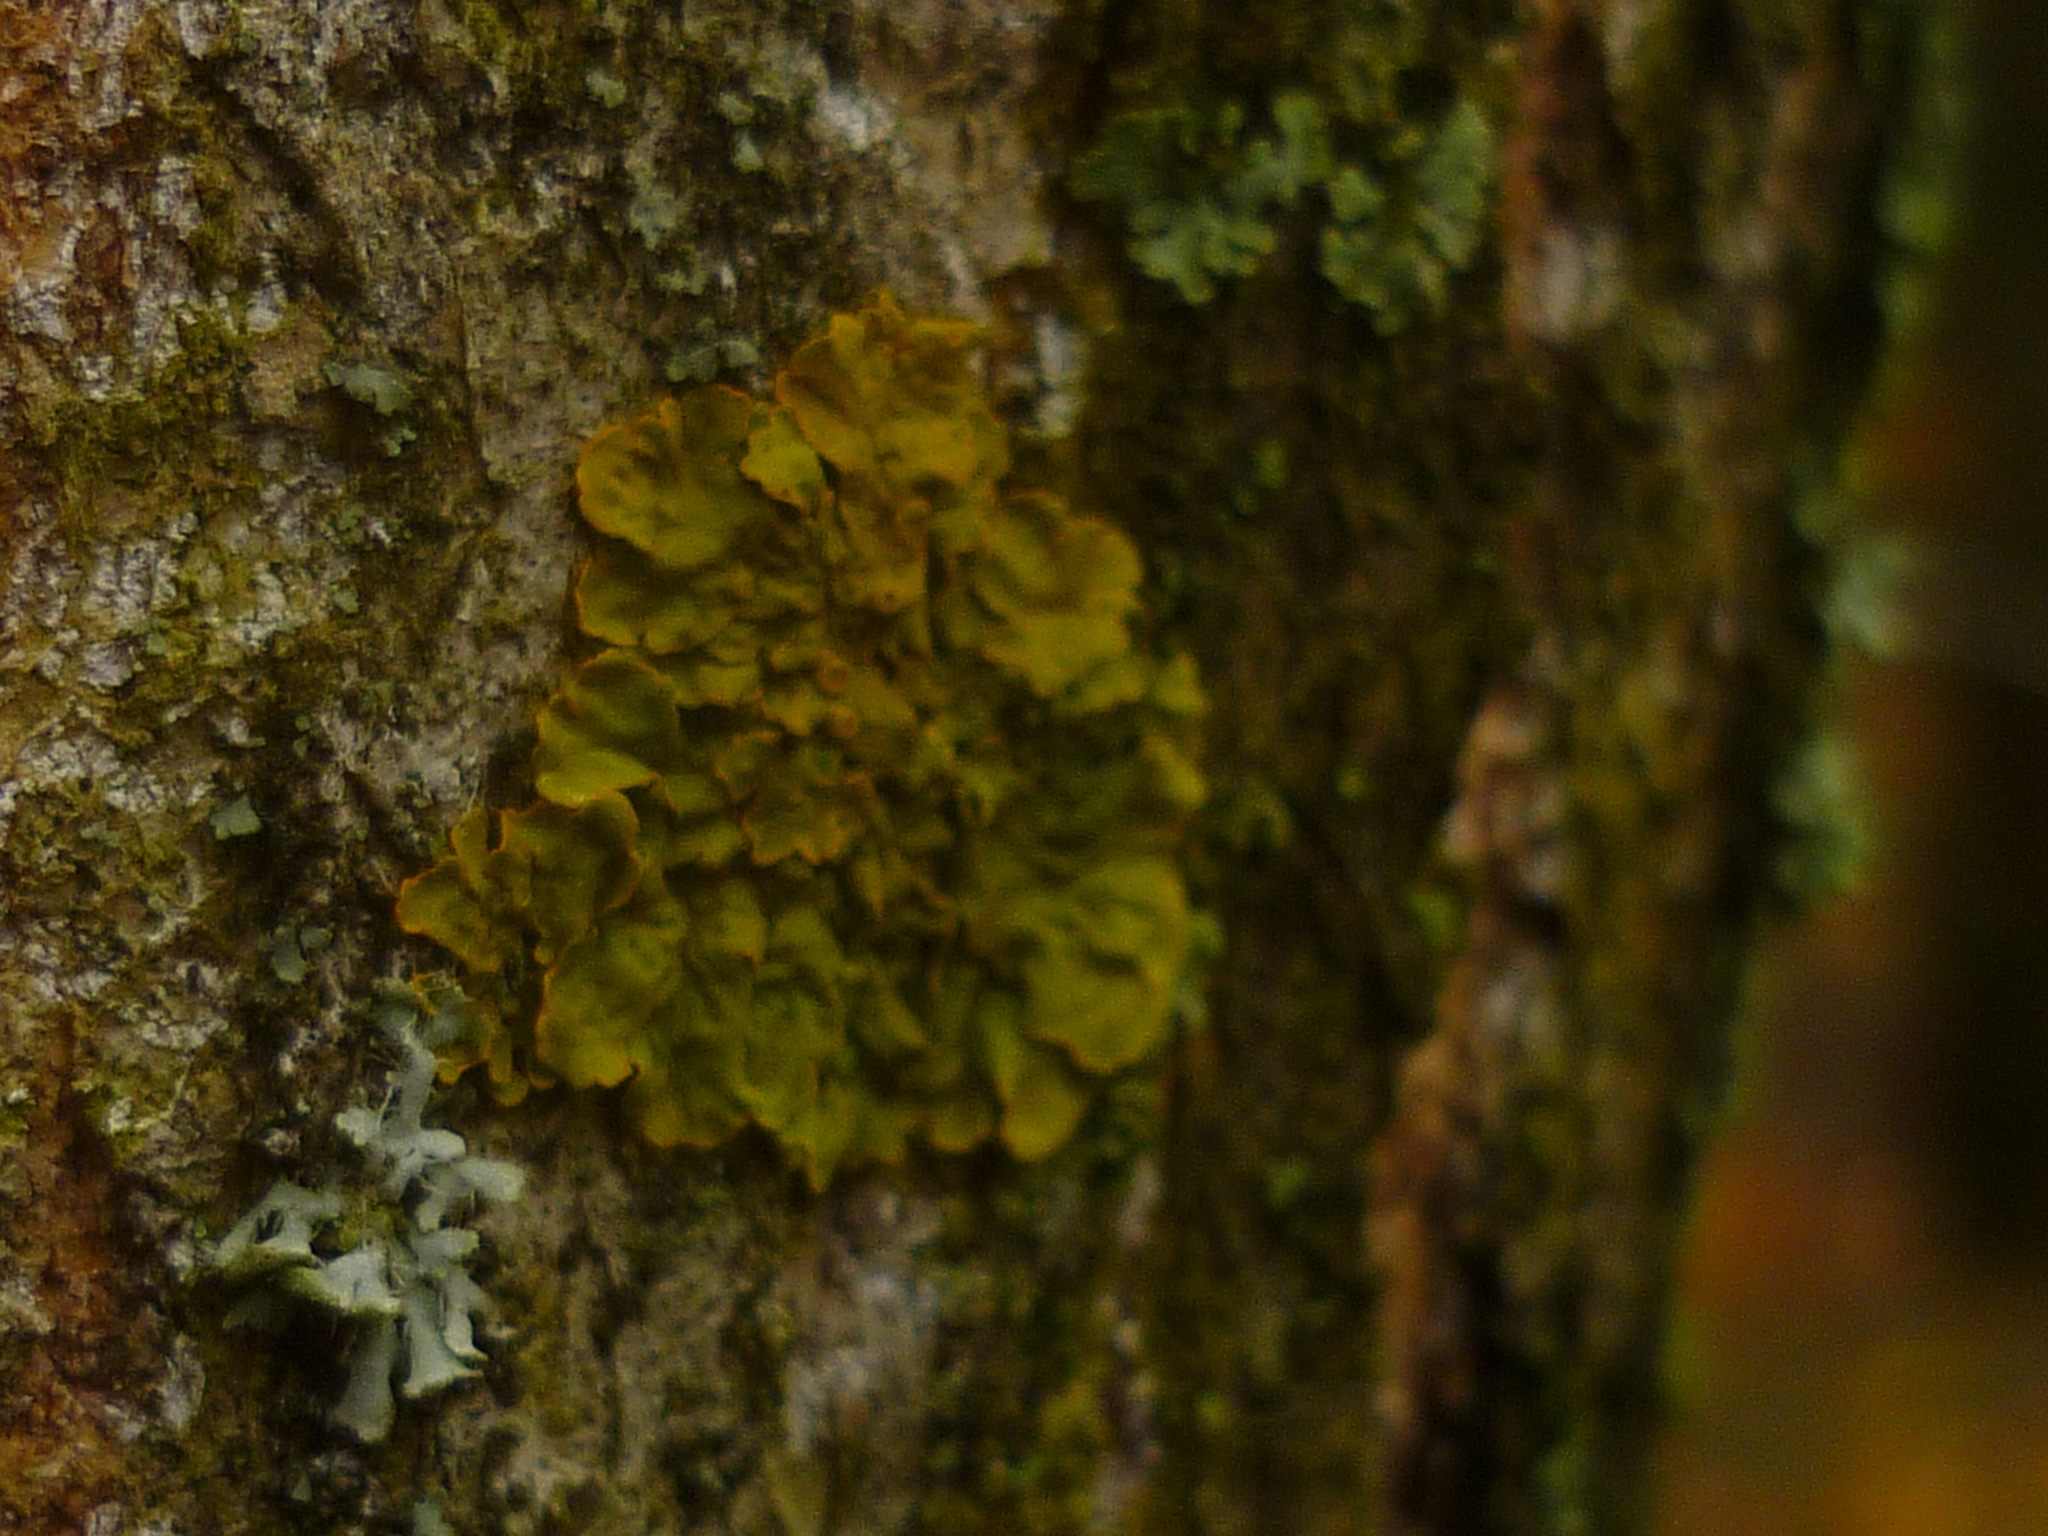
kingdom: Fungi
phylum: Ascomycota
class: Lecanoromycetes
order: Teloschistales
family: Teloschistaceae
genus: Xanthoria
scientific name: Xanthoria parietina
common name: Common orange lichen
